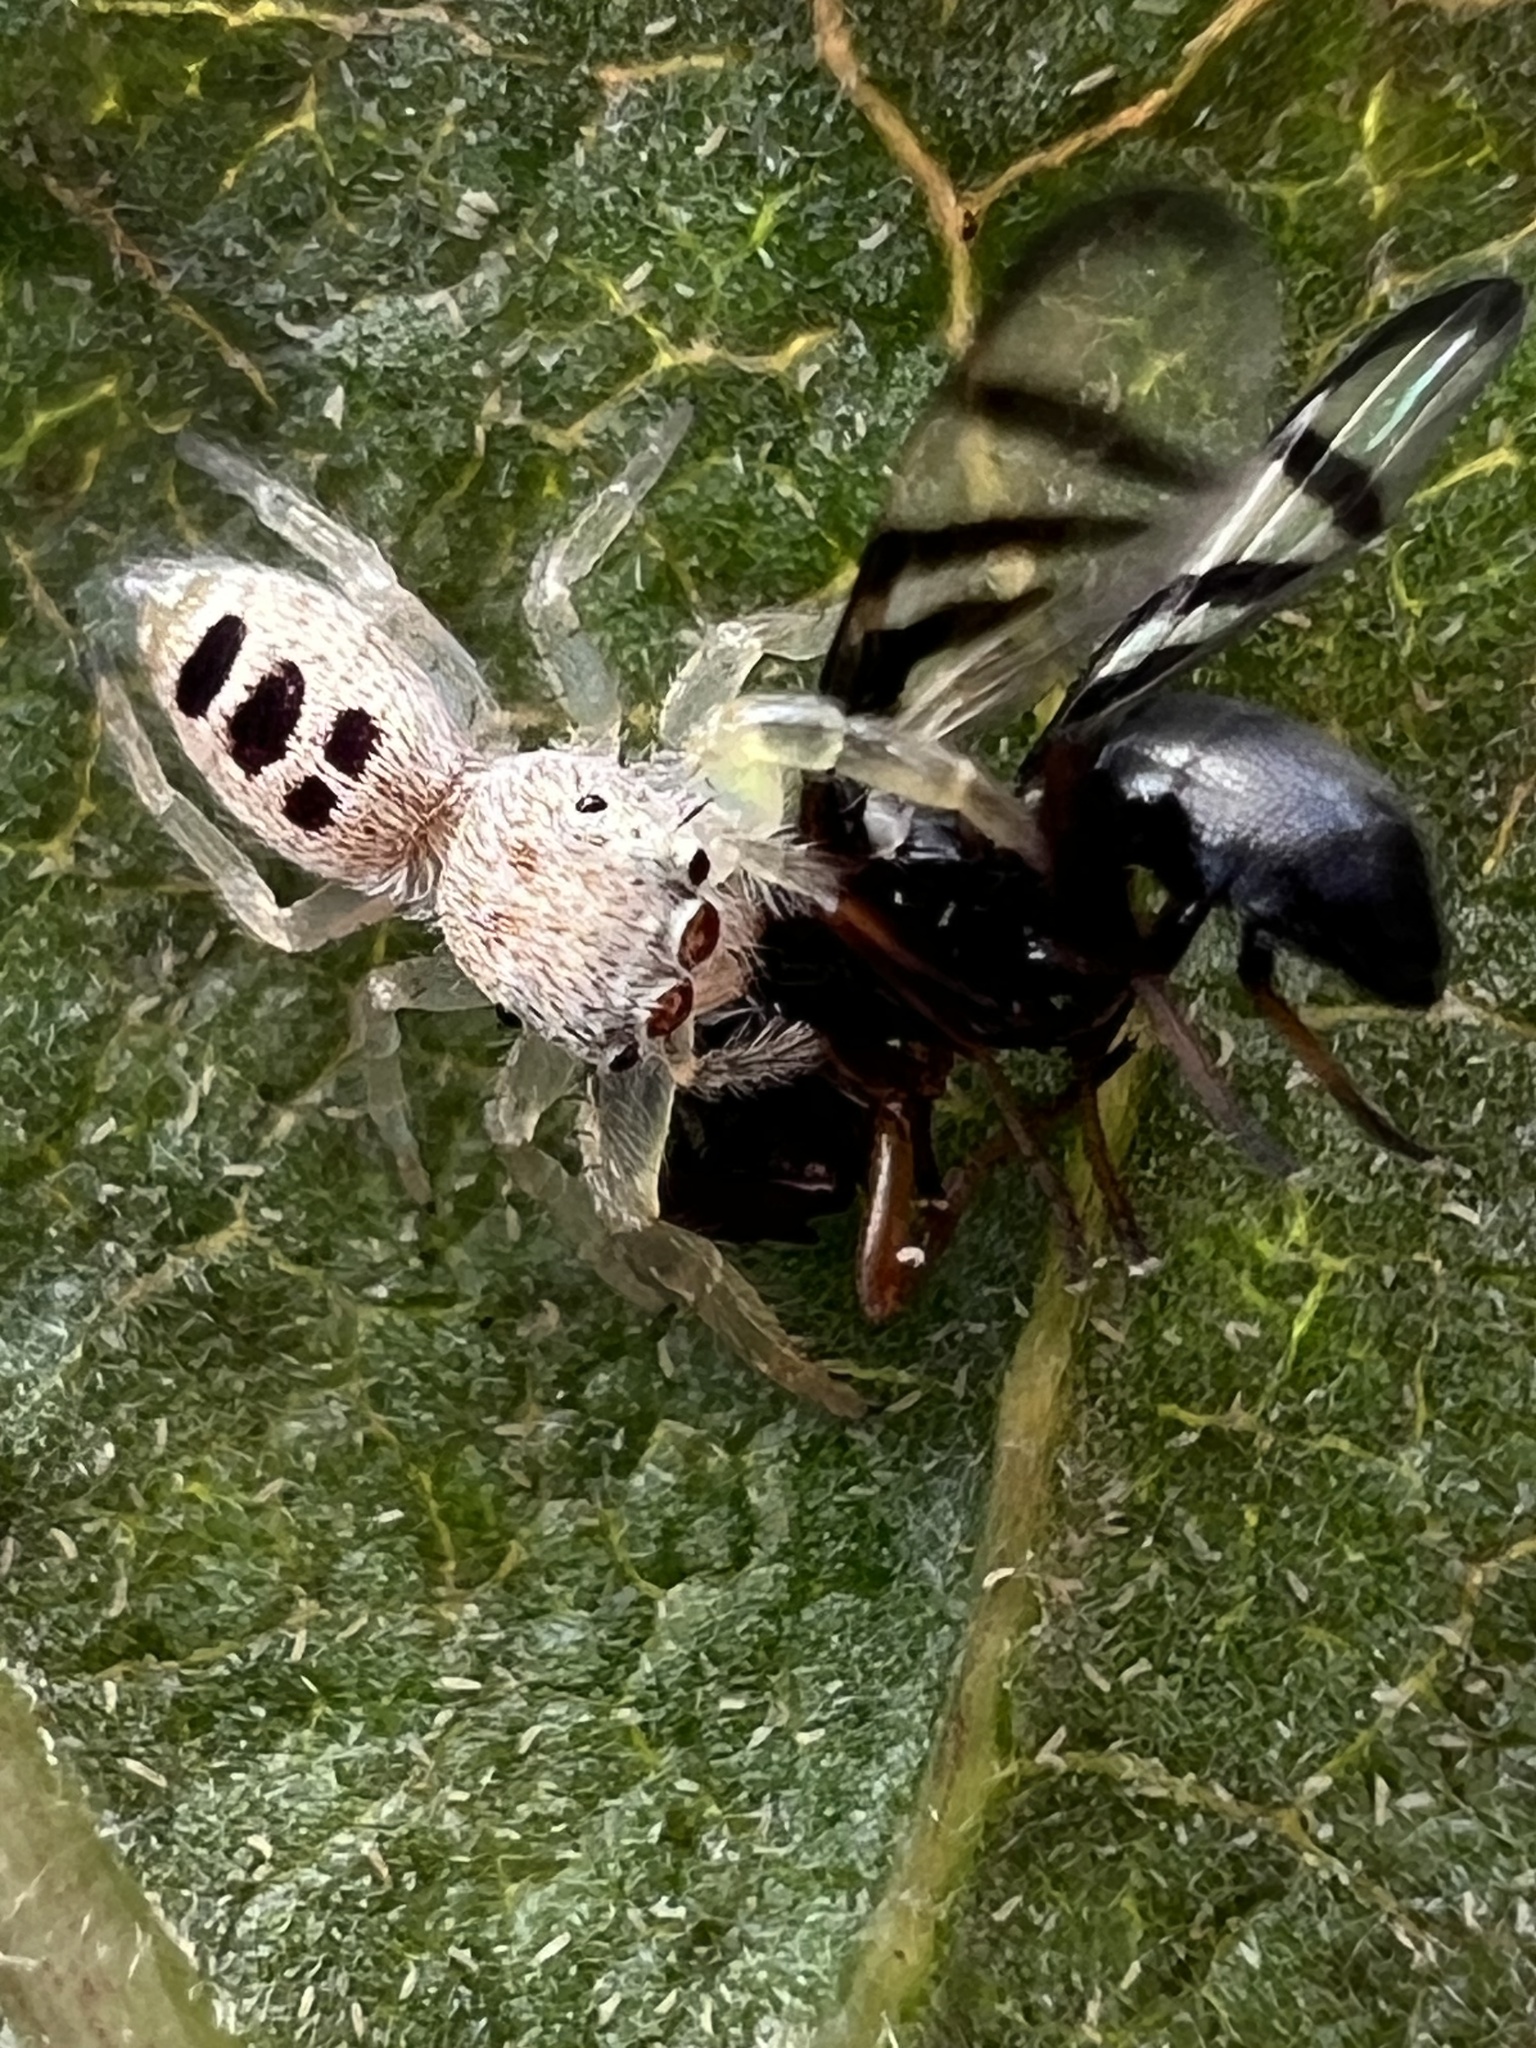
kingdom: Animalia
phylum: Arthropoda
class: Arachnida
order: Araneae
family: Salticidae
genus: Hentzia
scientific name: Hentzia mitrata
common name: White-jawed jumping spider
